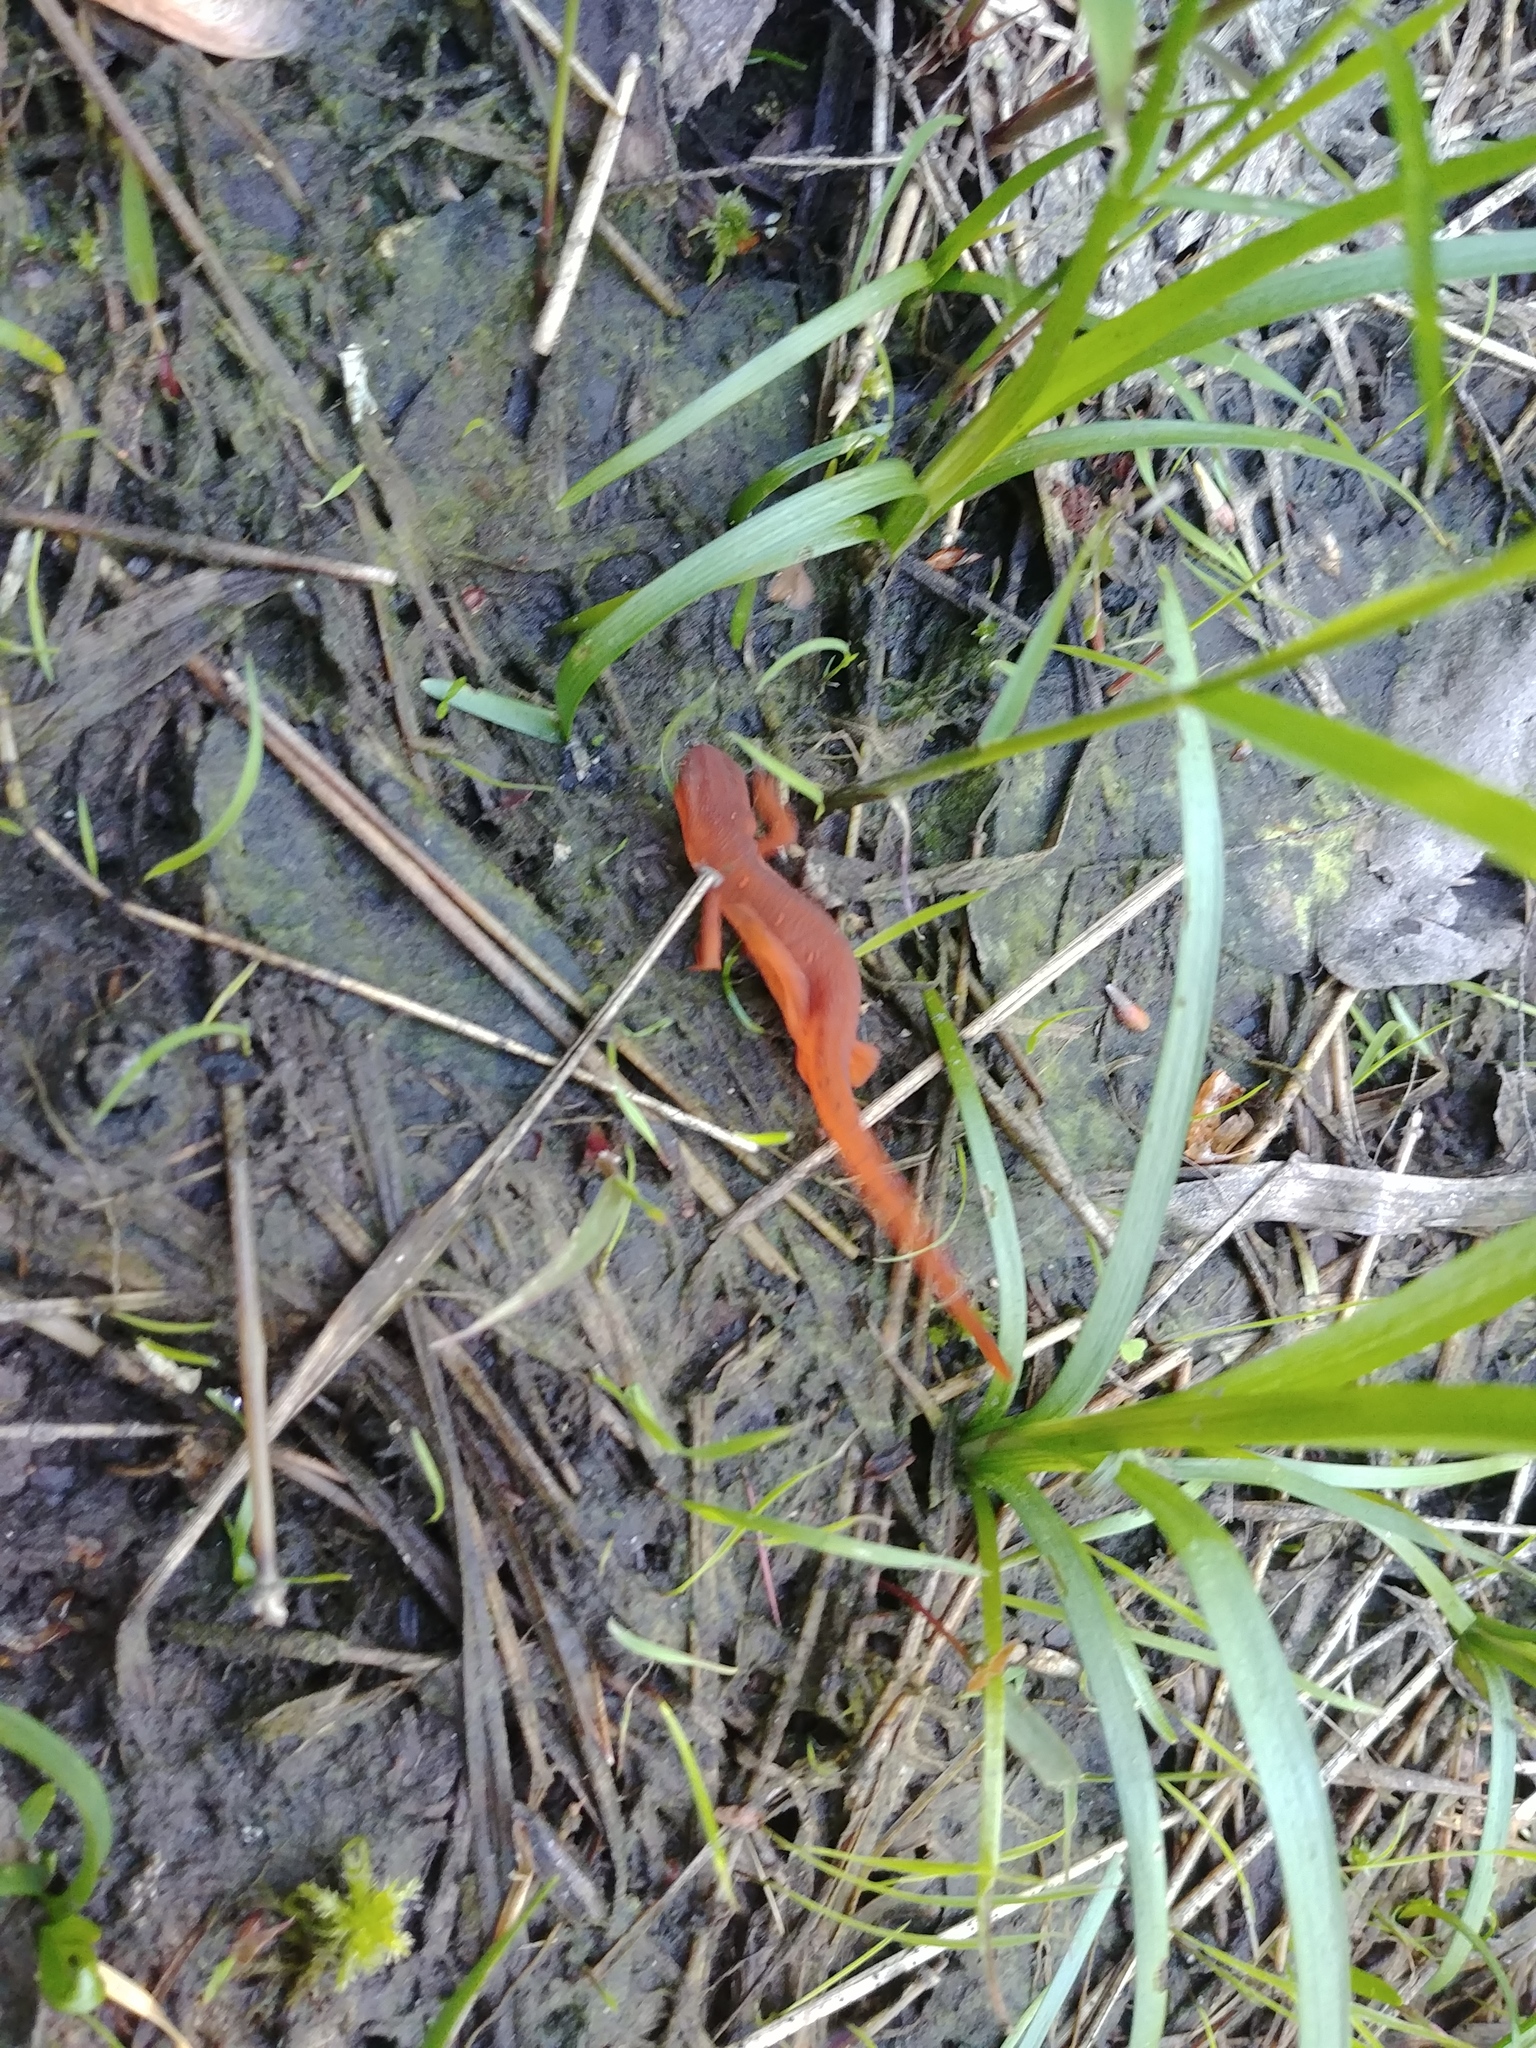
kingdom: Animalia
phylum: Chordata
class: Amphibia
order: Caudata
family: Salamandridae
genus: Notophthalmus
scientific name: Notophthalmus viridescens
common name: Eastern newt
